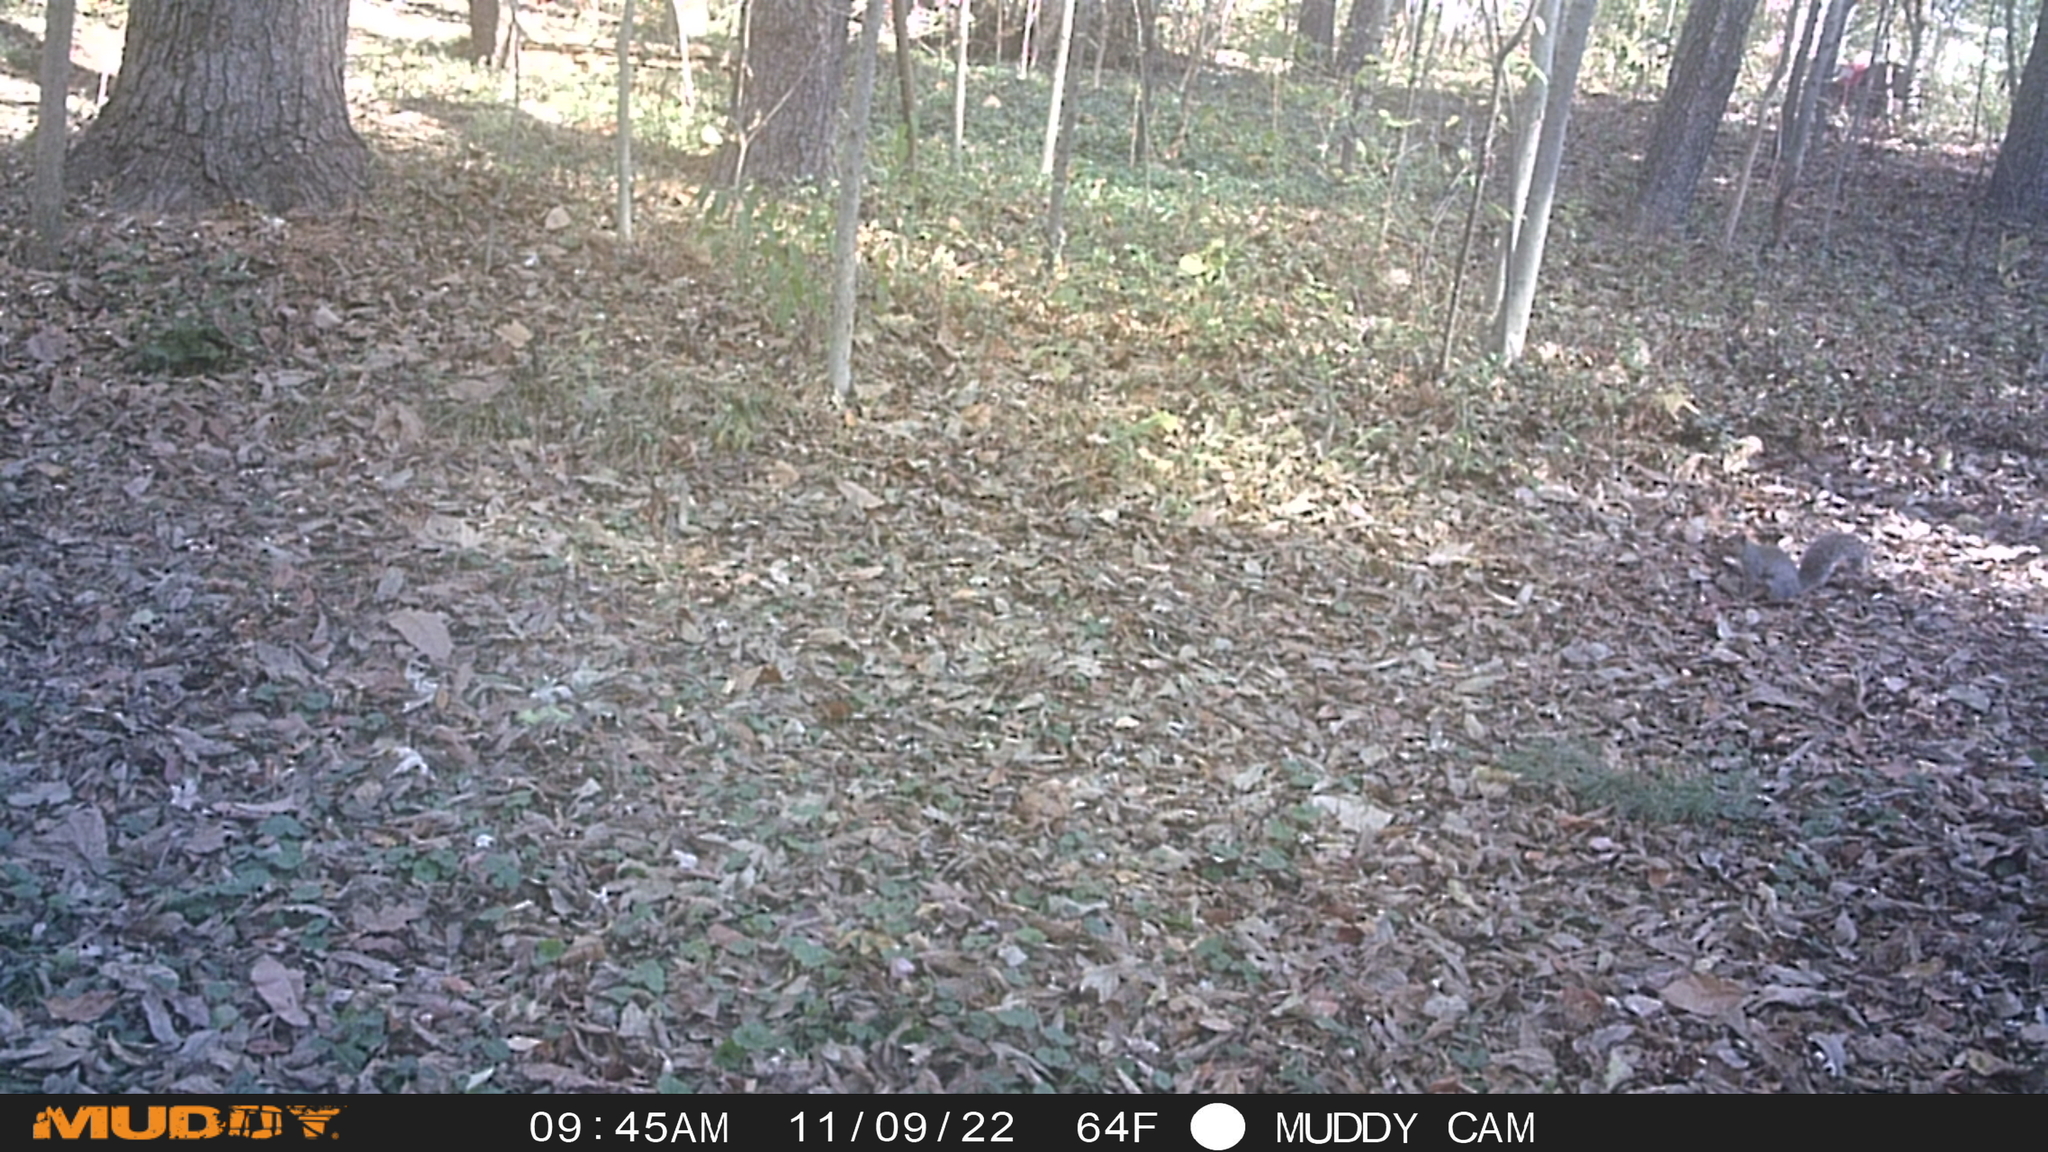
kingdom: Animalia
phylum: Chordata
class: Mammalia
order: Rodentia
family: Sciuridae
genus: Sciurus
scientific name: Sciurus carolinensis
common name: Eastern gray squirrel
